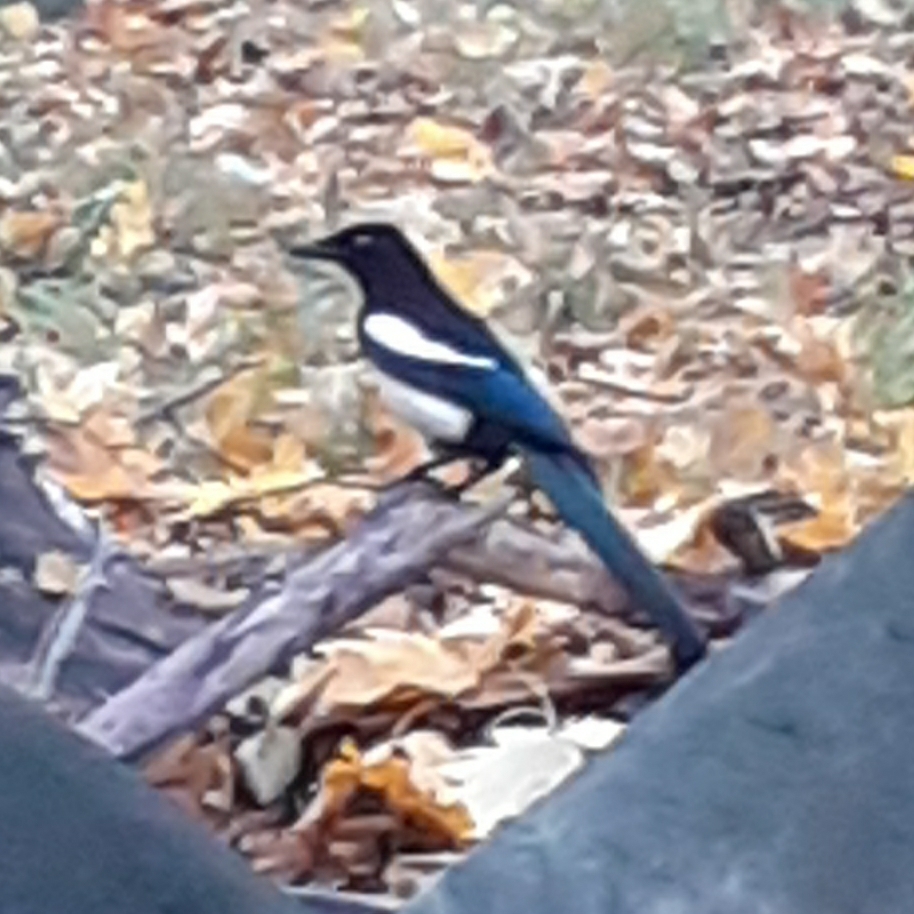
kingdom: Animalia
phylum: Chordata
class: Aves
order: Passeriformes
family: Corvidae
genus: Pica
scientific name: Pica pica
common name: Eurasian magpie
